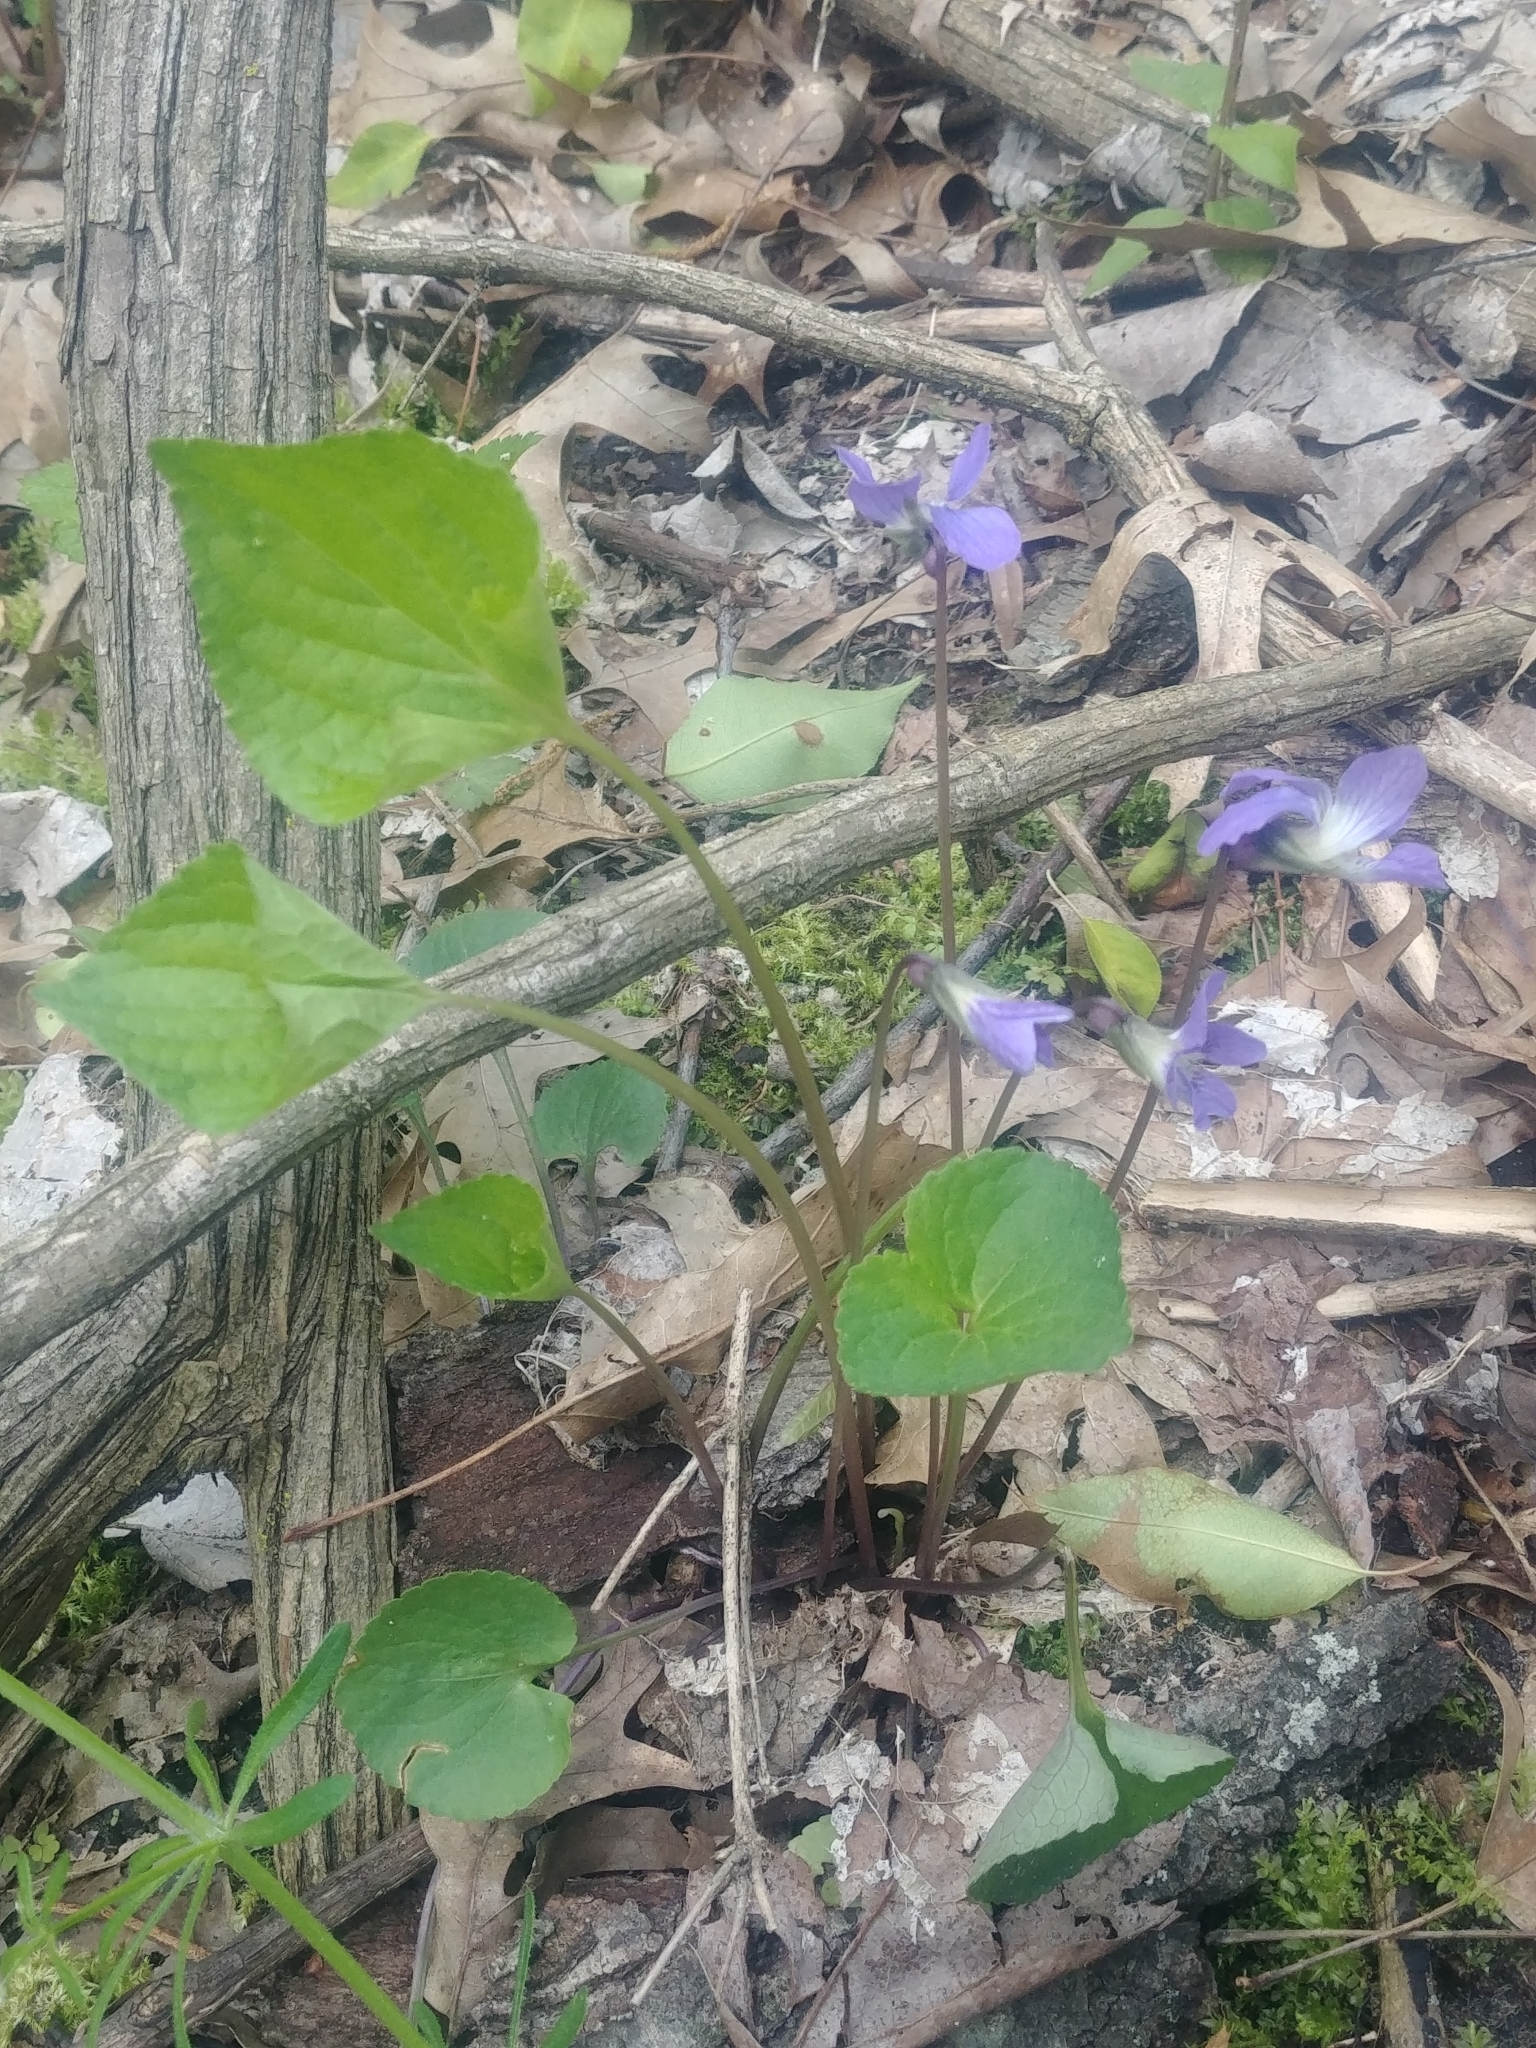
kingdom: Plantae
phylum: Tracheophyta
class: Magnoliopsida
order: Malpighiales
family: Violaceae
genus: Viola
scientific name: Viola affinis
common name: Leconte's violet
